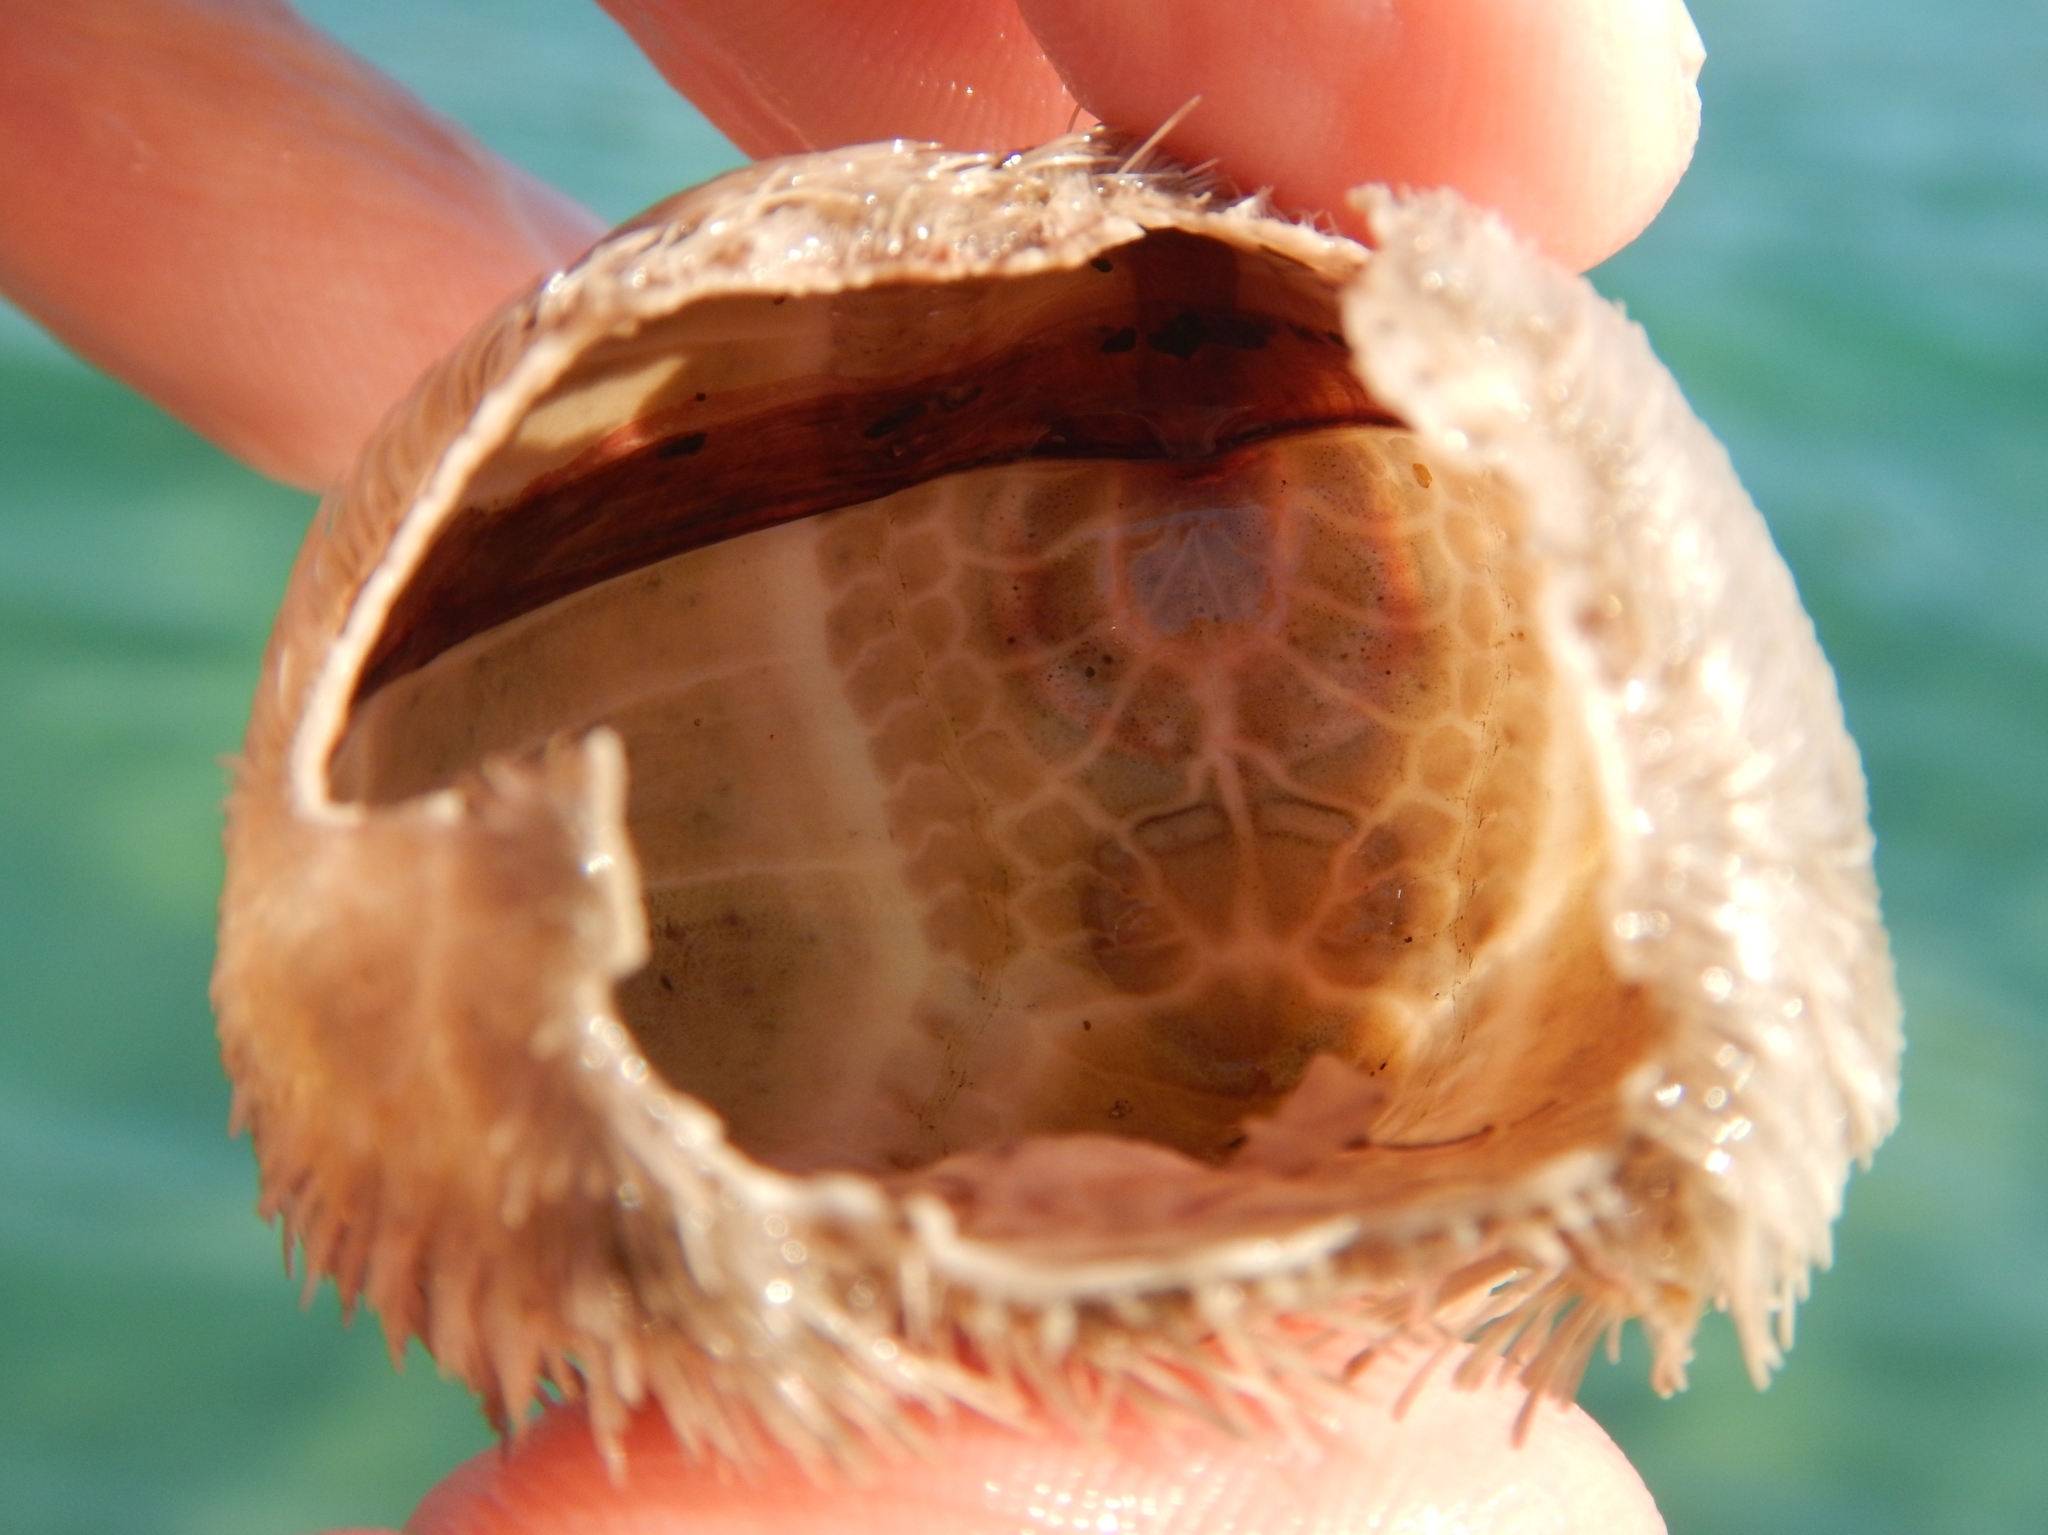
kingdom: Animalia
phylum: Echinodermata
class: Echinoidea
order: Spatangoida
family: Loveniidae
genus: Echinocardium
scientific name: Echinocardium
